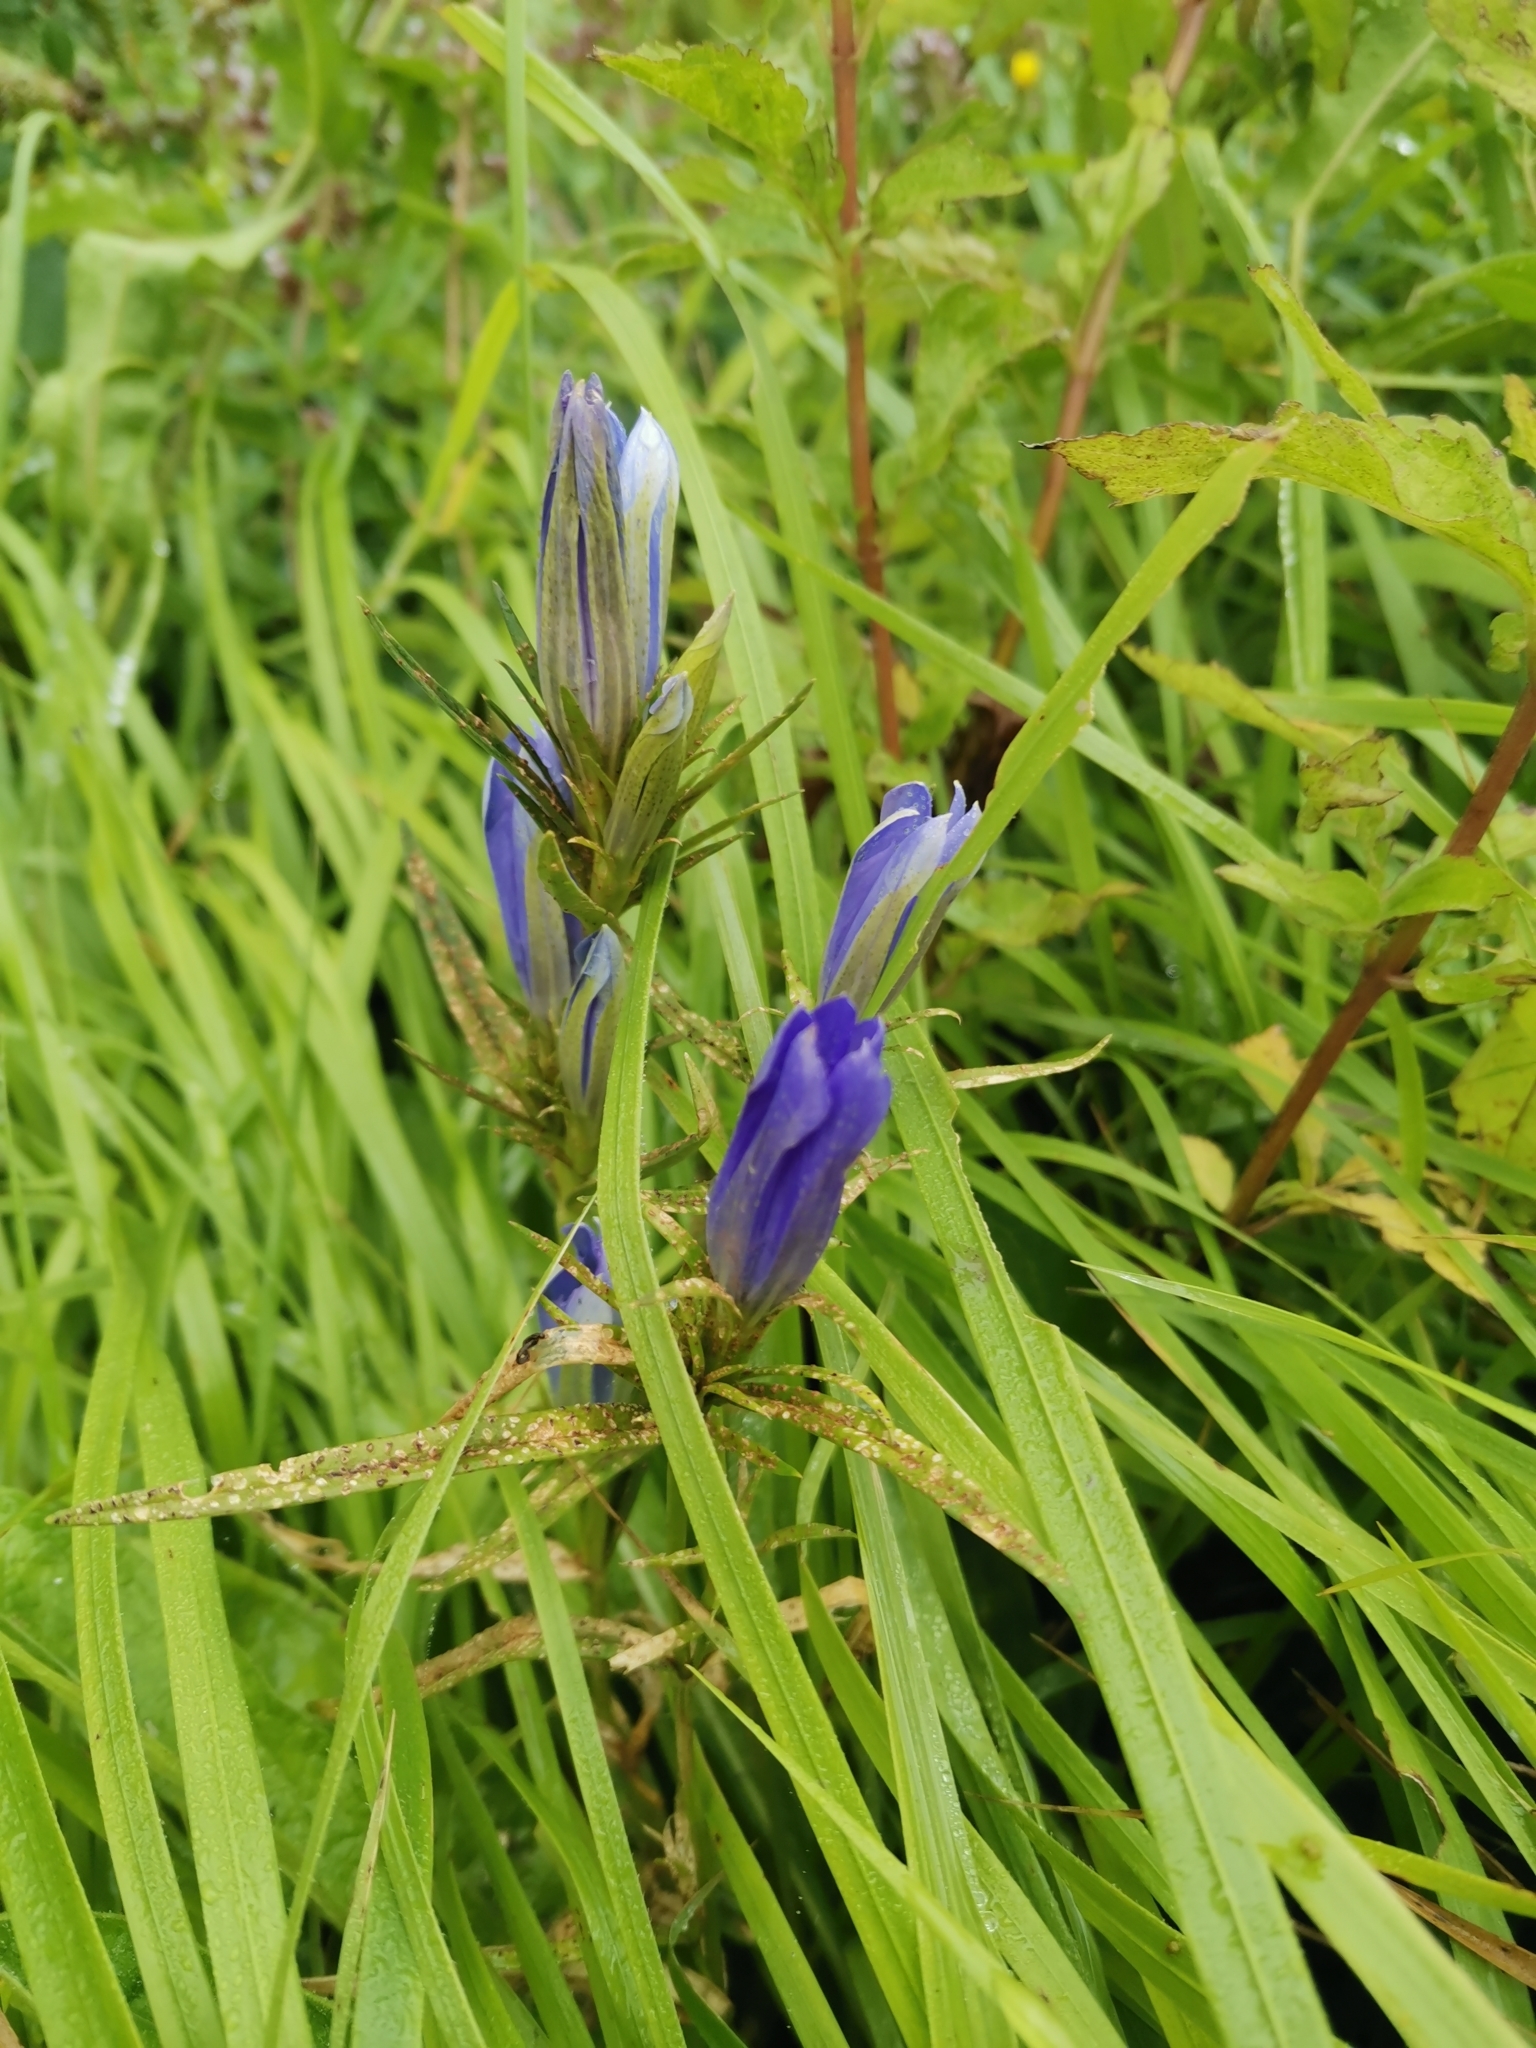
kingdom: Plantae
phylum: Tracheophyta
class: Magnoliopsida
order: Gentianales
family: Gentianaceae
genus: Gentiana
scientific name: Gentiana pneumonanthe
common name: Marsh gentian
